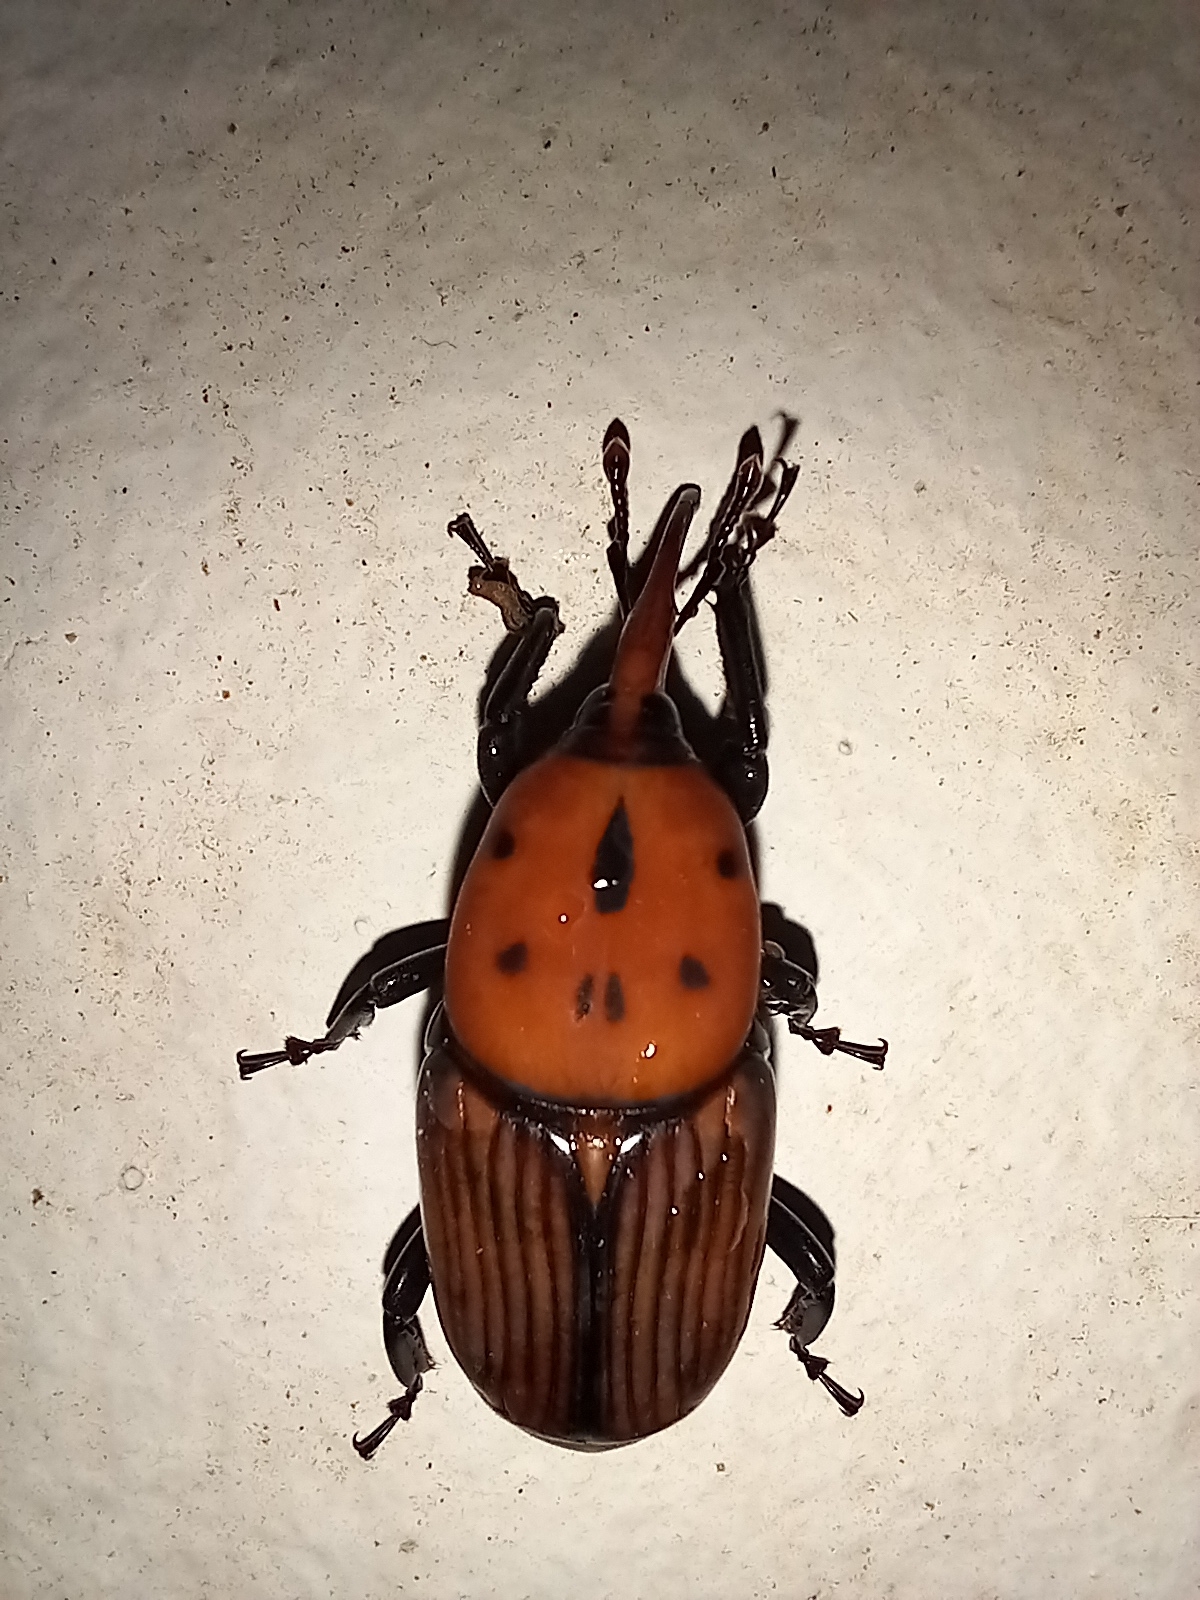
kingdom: Animalia
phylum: Arthropoda
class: Insecta
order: Coleoptera
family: Dryophthoridae
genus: Rhynchophorus
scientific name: Rhynchophorus ferrugineus
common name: Red palm weevil
